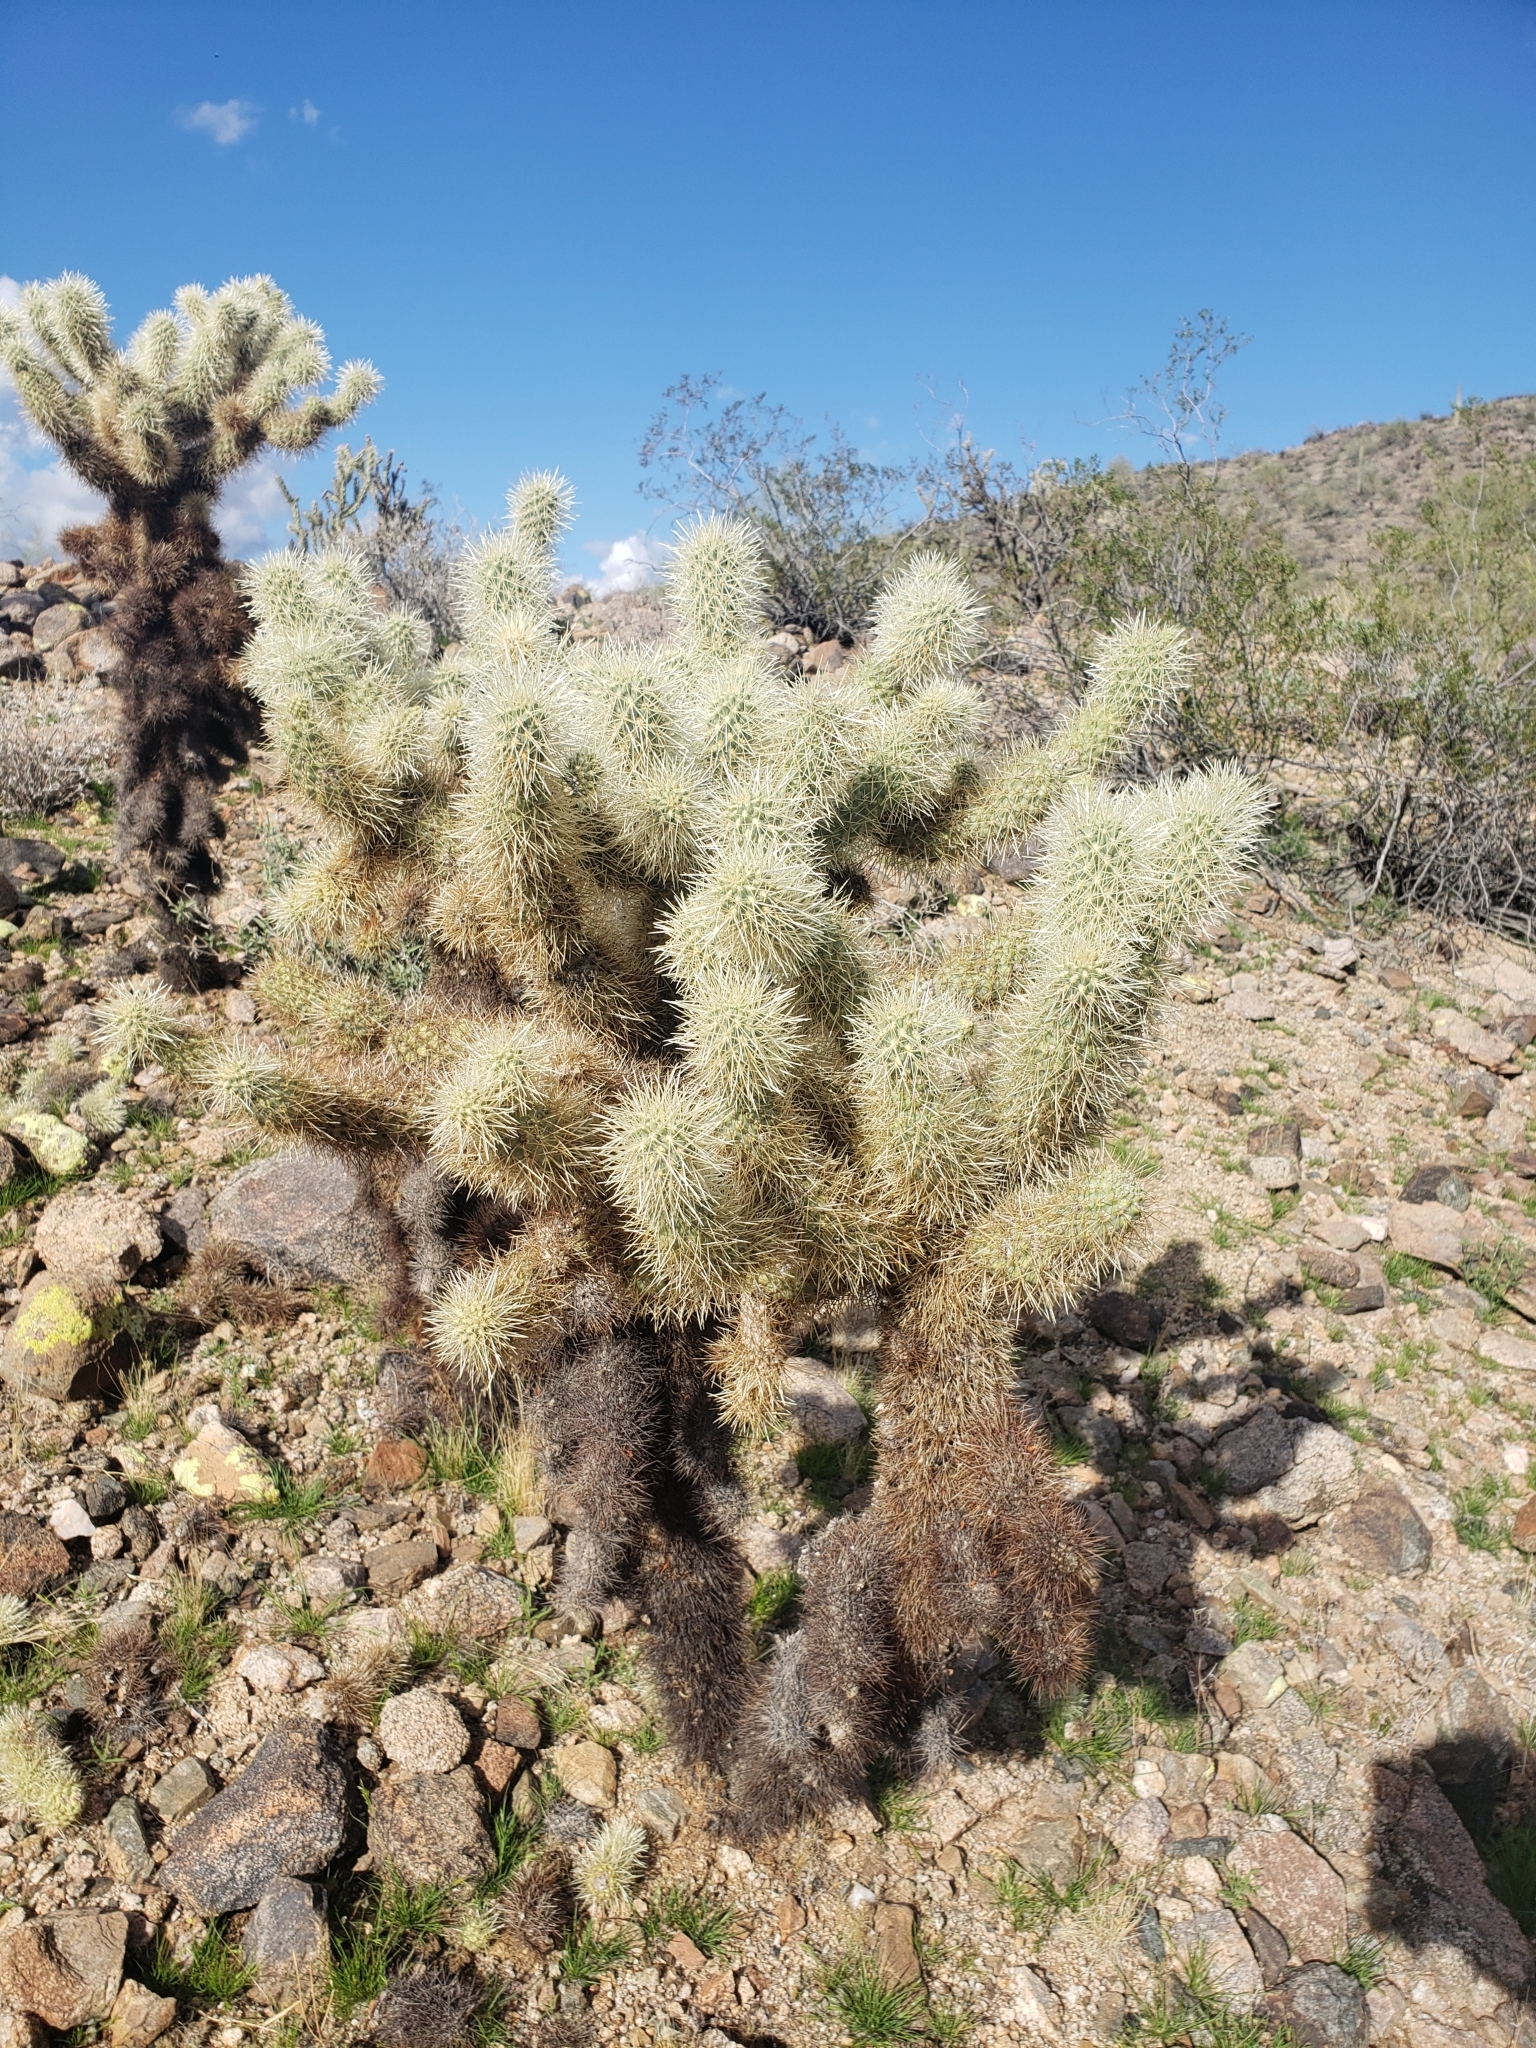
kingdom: Plantae
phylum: Tracheophyta
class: Magnoliopsida
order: Caryophyllales
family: Cactaceae
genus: Cylindropuntia
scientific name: Cylindropuntia fosbergii
